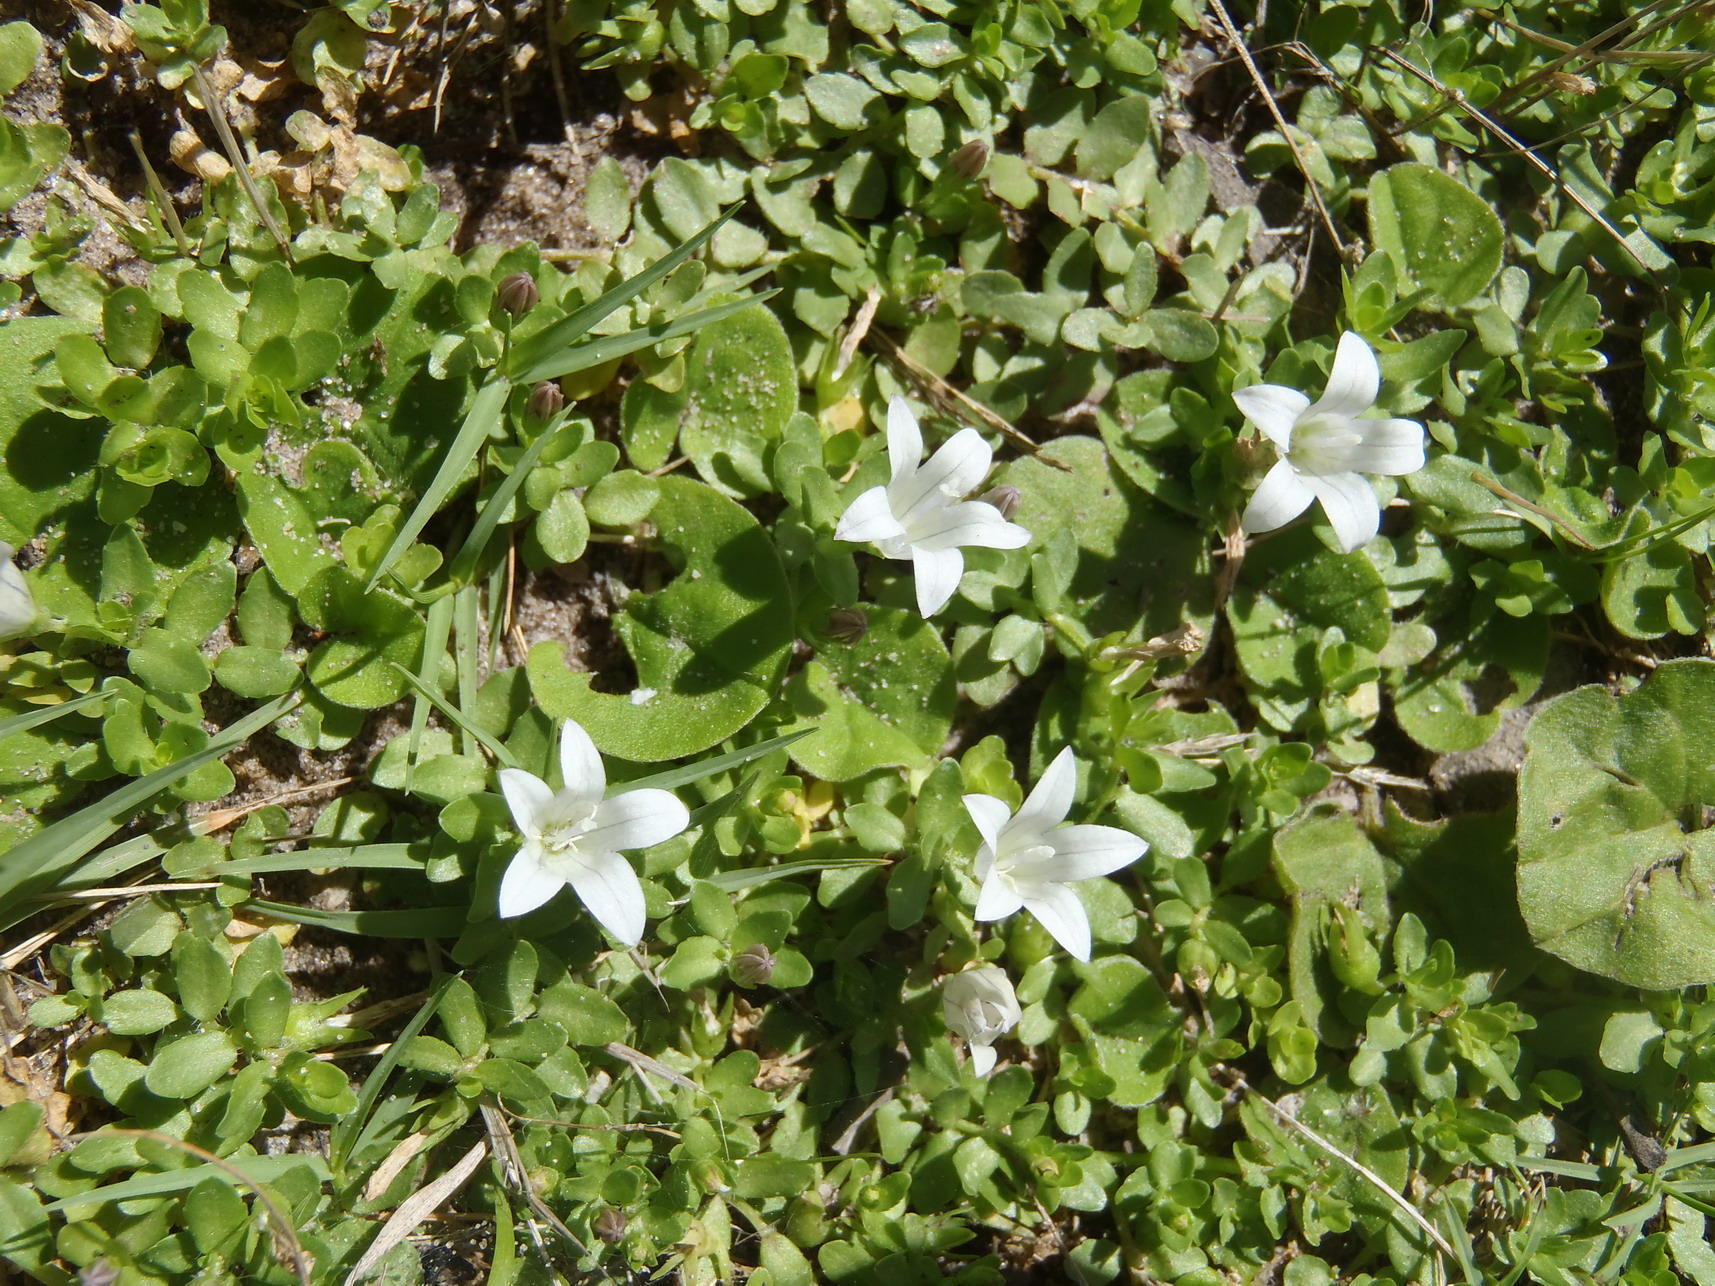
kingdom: Plantae
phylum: Tracheophyta
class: Magnoliopsida
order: Asterales
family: Campanulaceae
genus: Wahlenbergia
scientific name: Wahlenbergia procumbens
